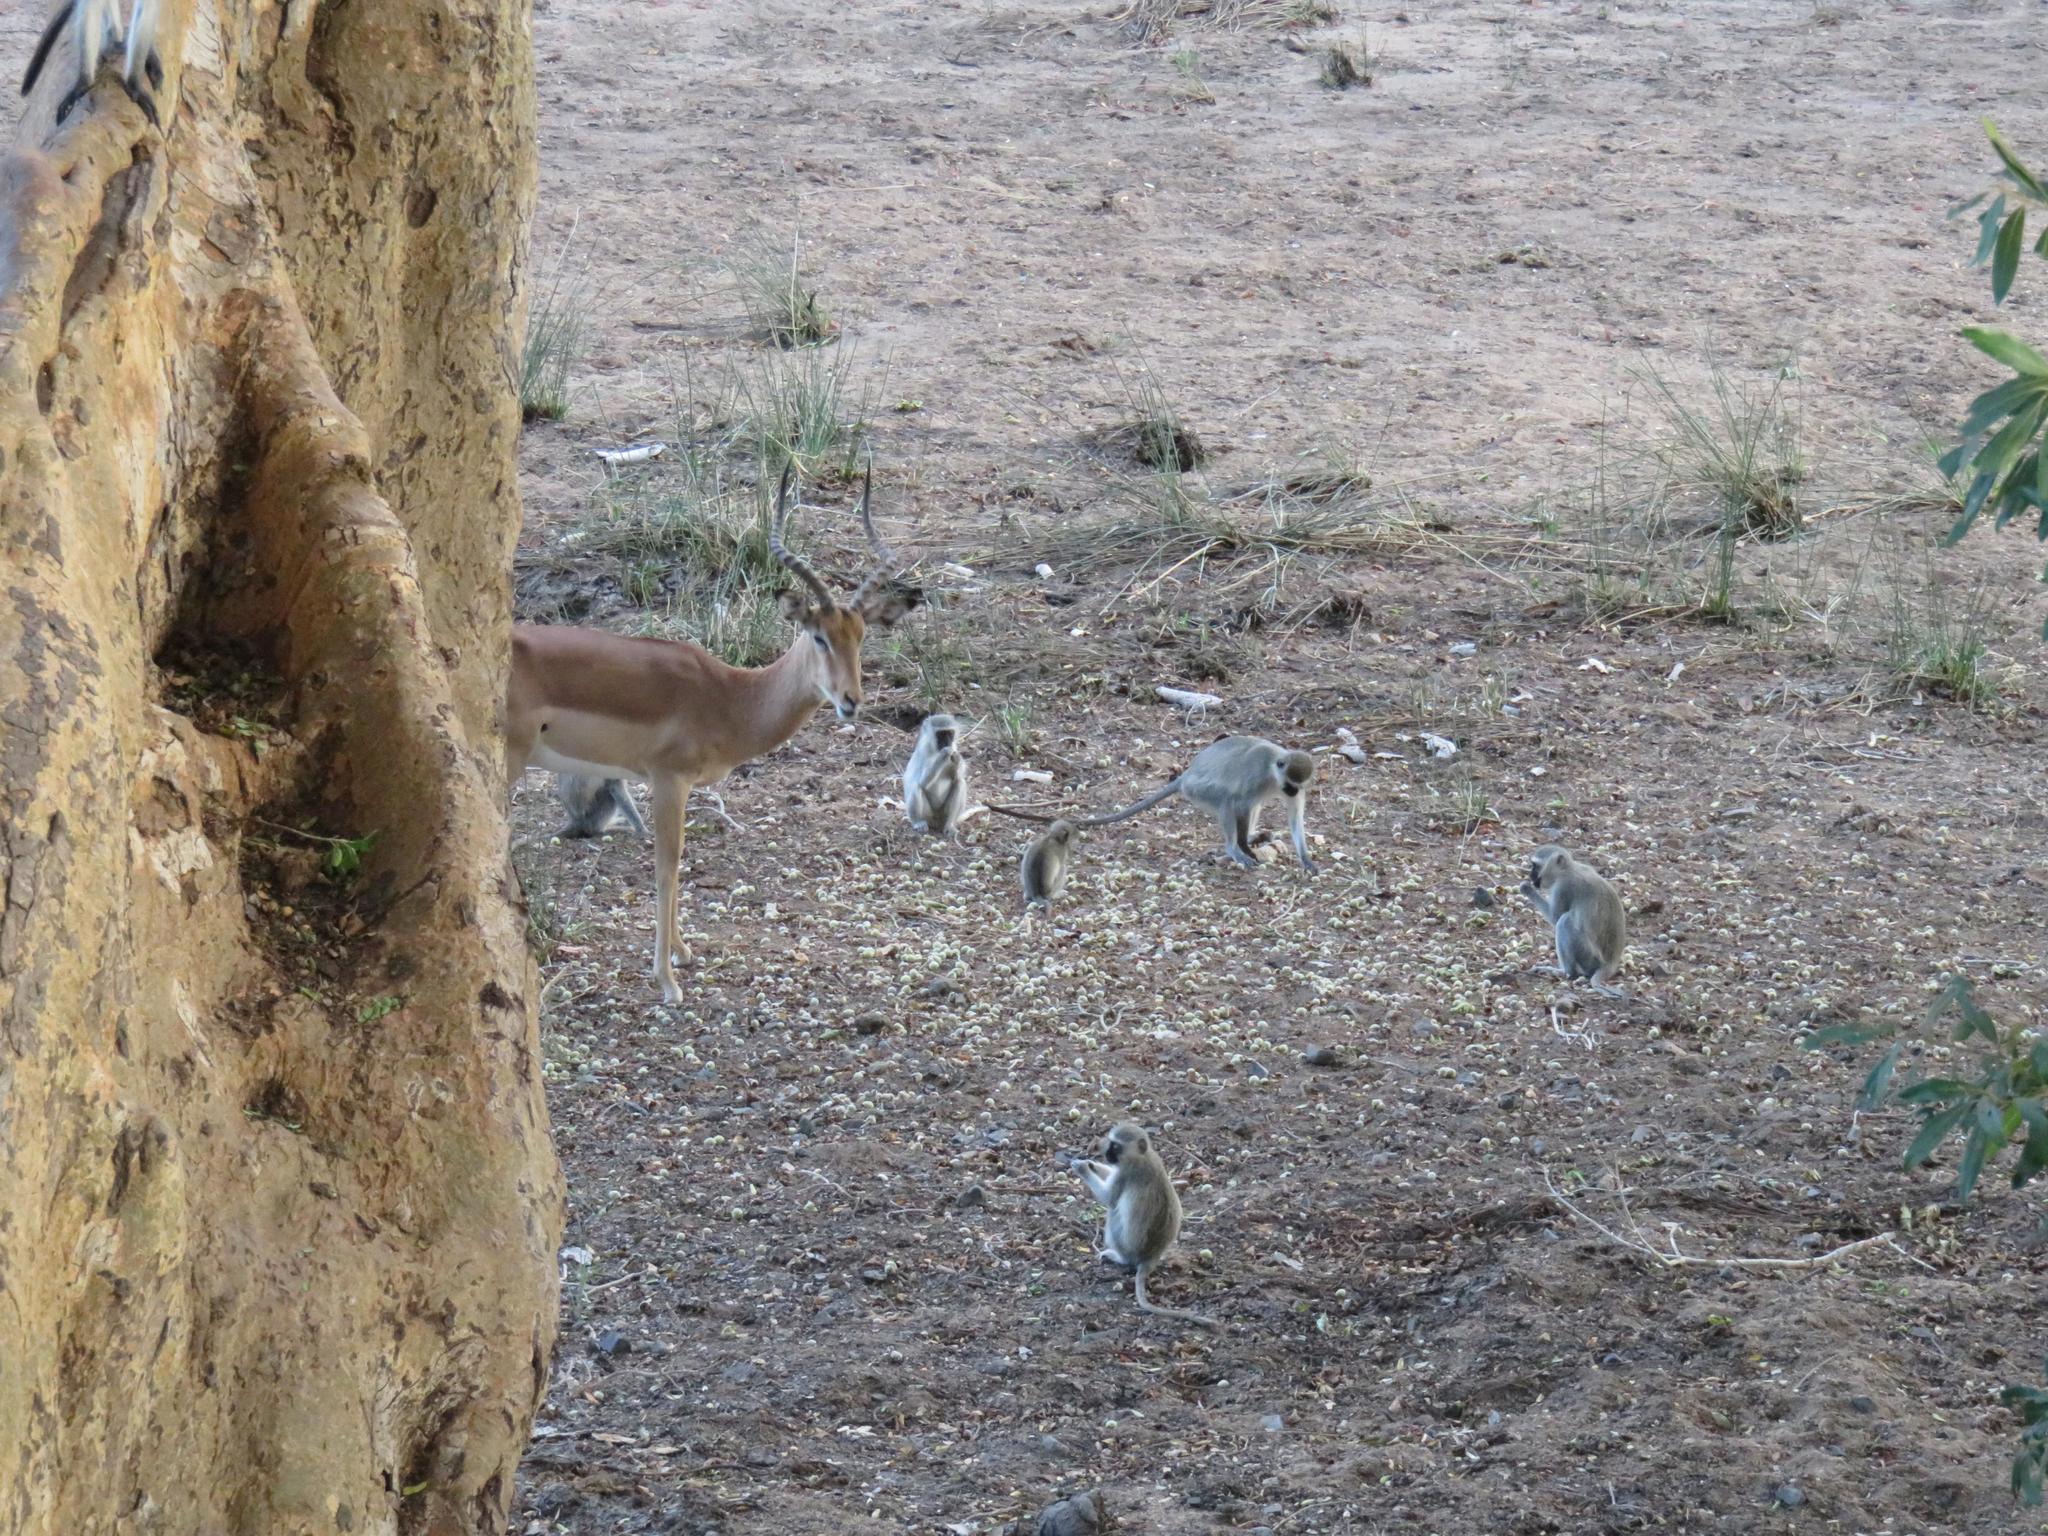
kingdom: Animalia
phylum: Chordata
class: Mammalia
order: Primates
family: Cercopithecidae
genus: Chlorocebus
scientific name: Chlorocebus pygerythrus
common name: Vervet monkey
